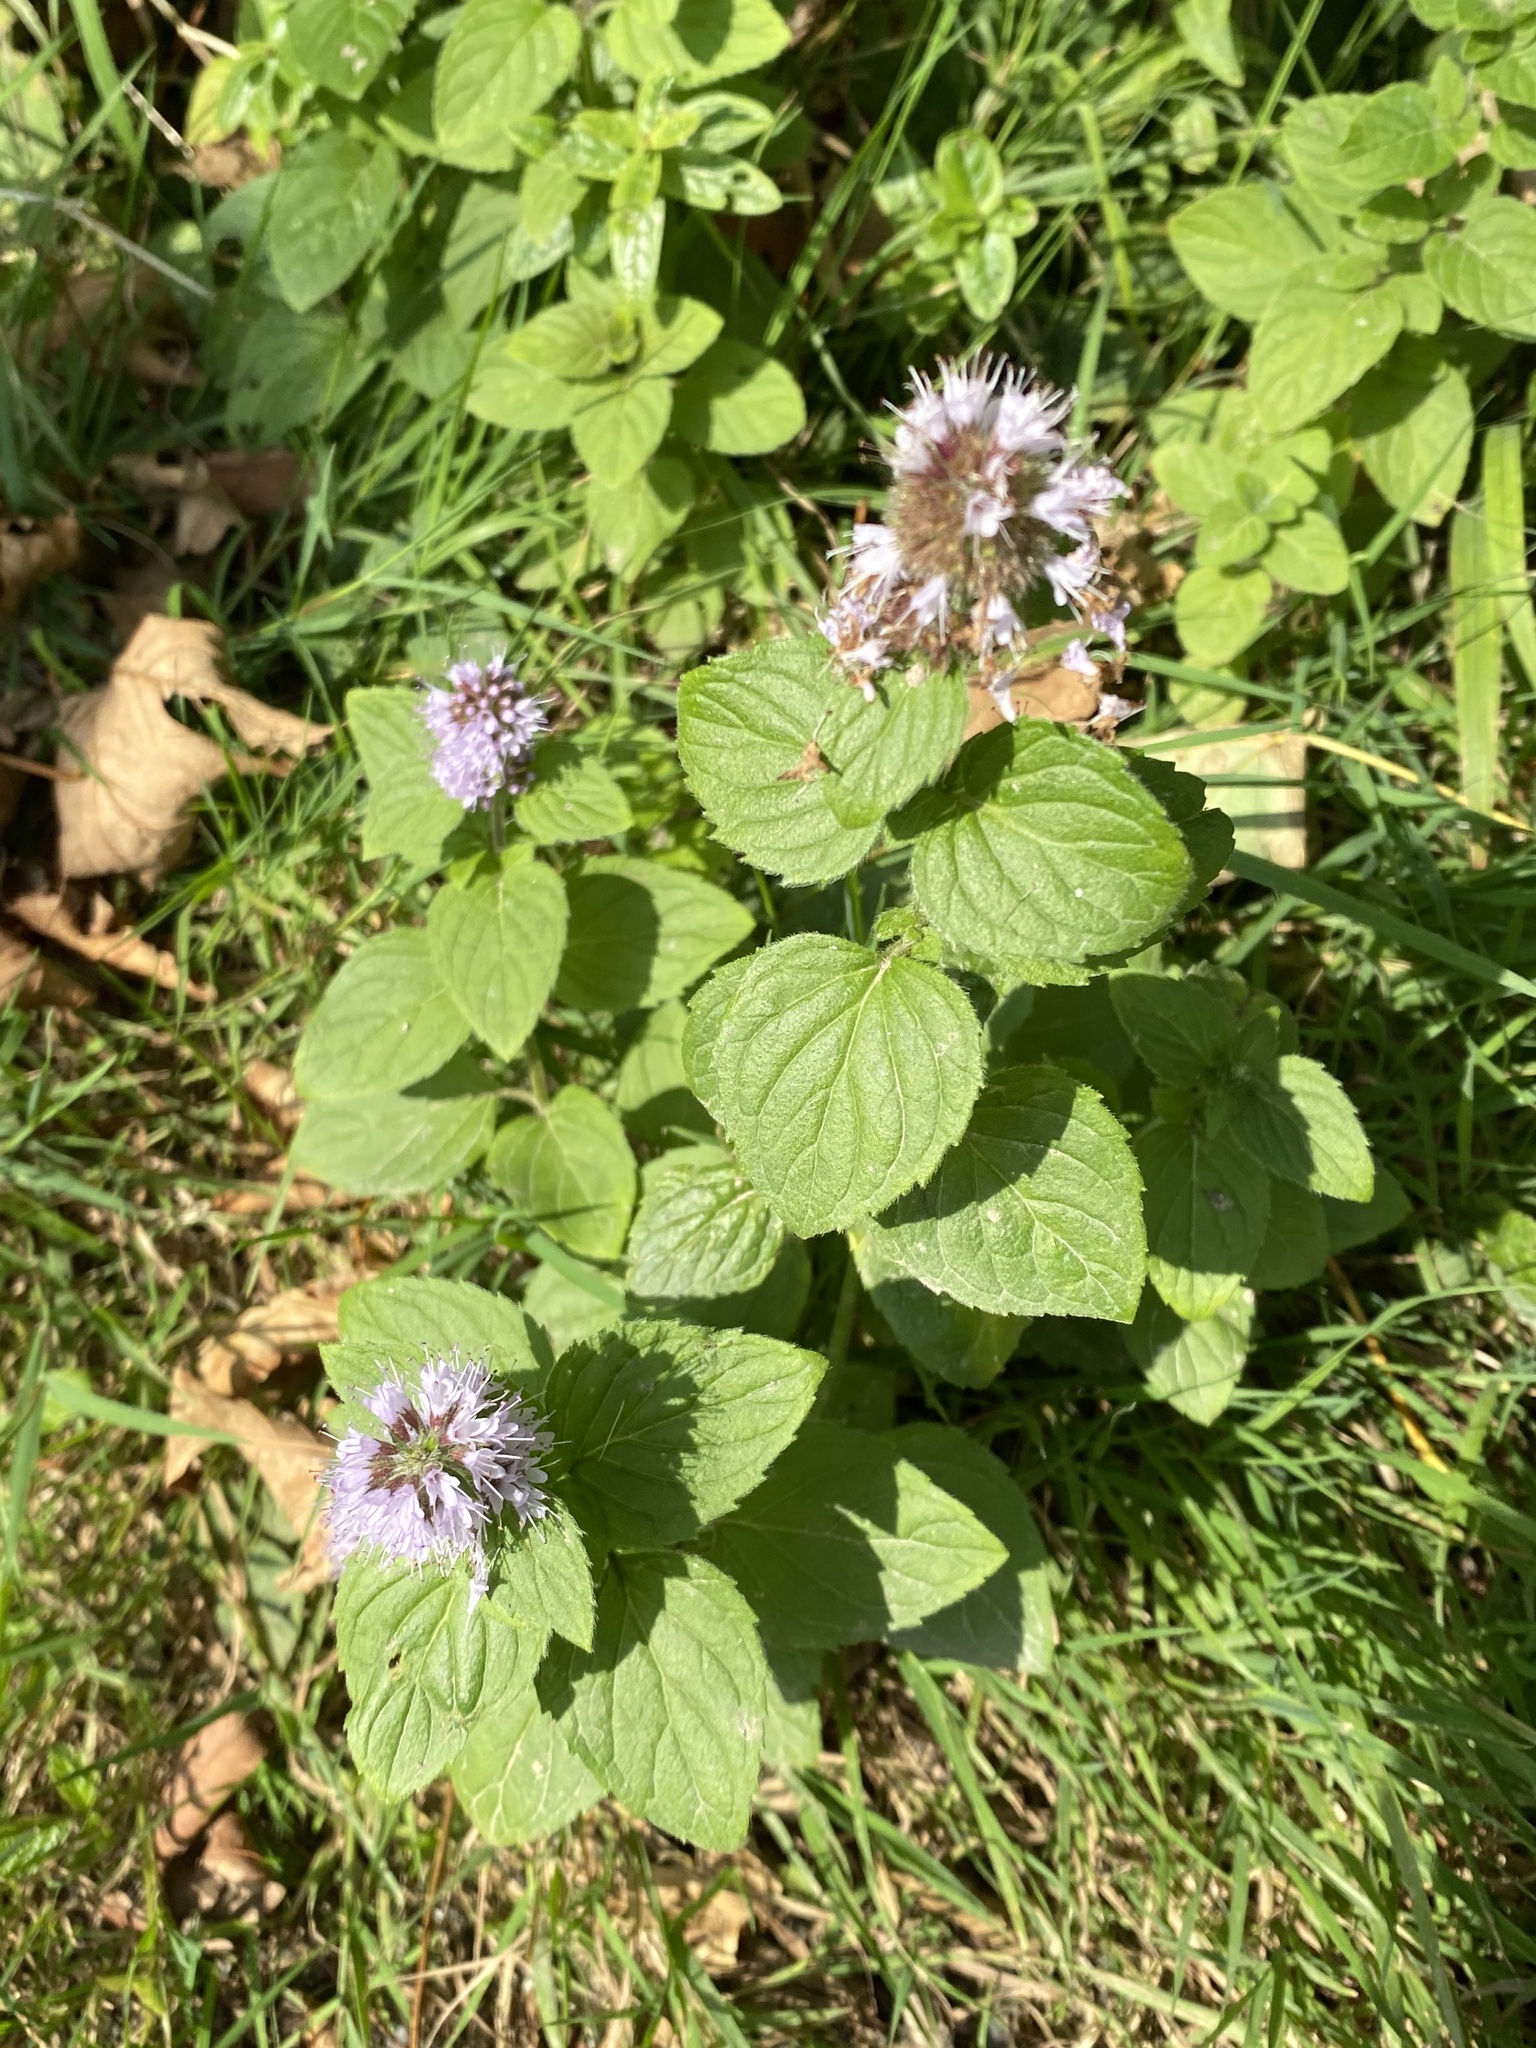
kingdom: Plantae
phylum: Tracheophyta
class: Magnoliopsida
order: Lamiales
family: Lamiaceae
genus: Mentha
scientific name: Mentha aquatica
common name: Water mint
